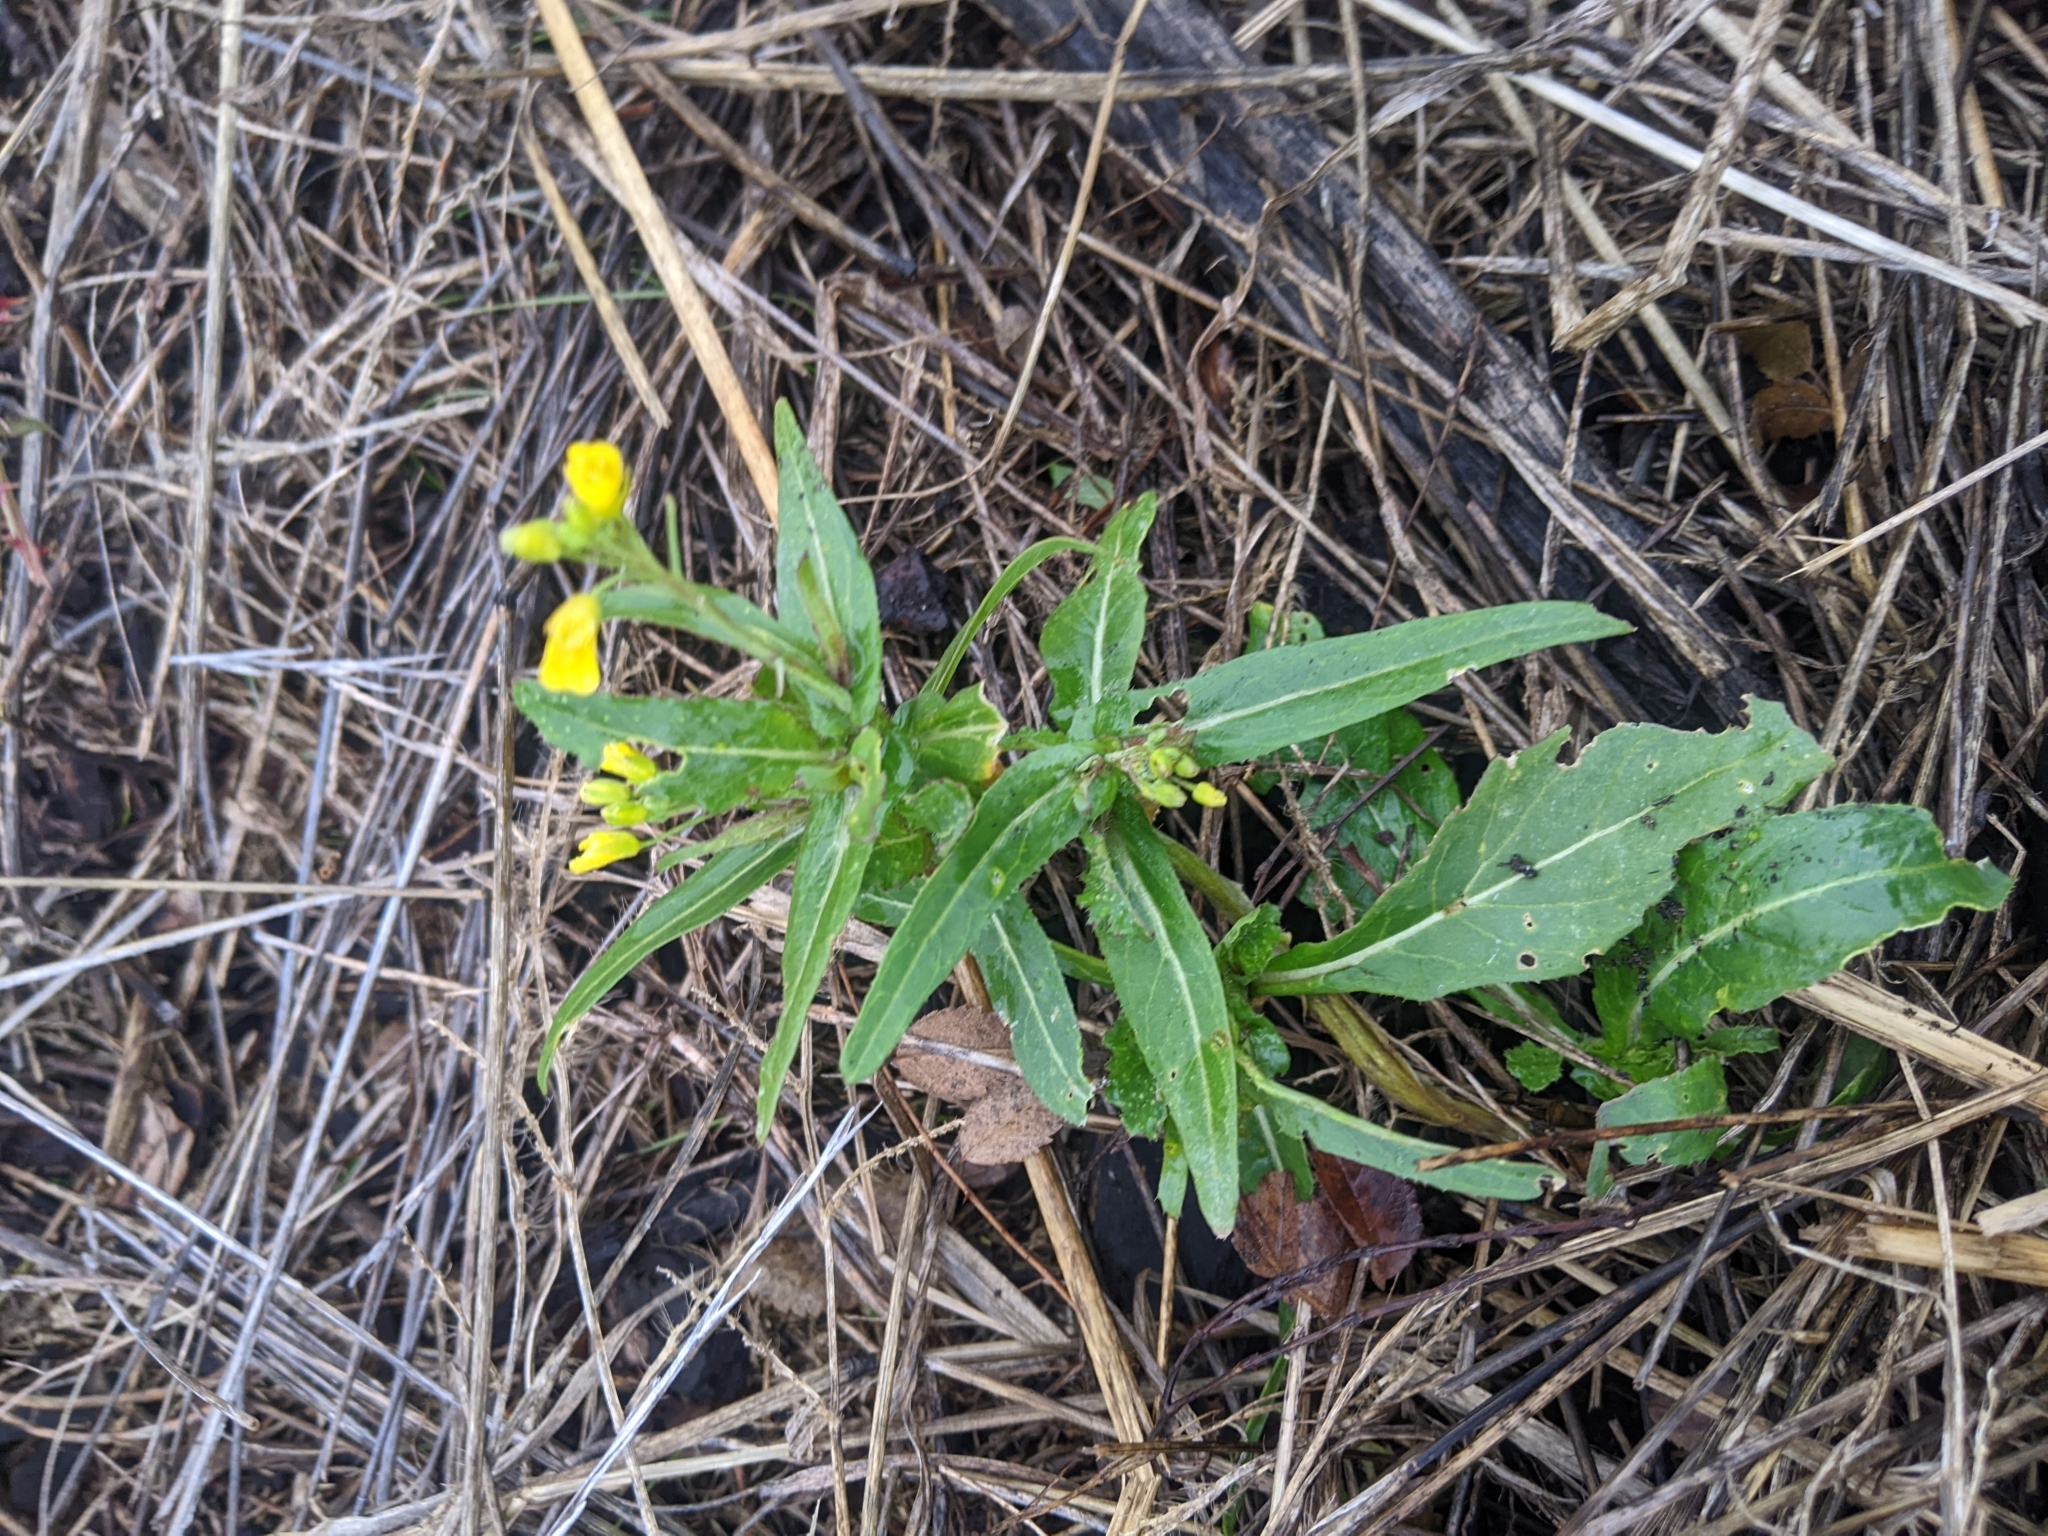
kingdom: Plantae
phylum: Tracheophyta
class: Magnoliopsida
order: Brassicales
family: Brassicaceae
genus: Brassica
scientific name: Brassica rapa
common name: Field mustard
